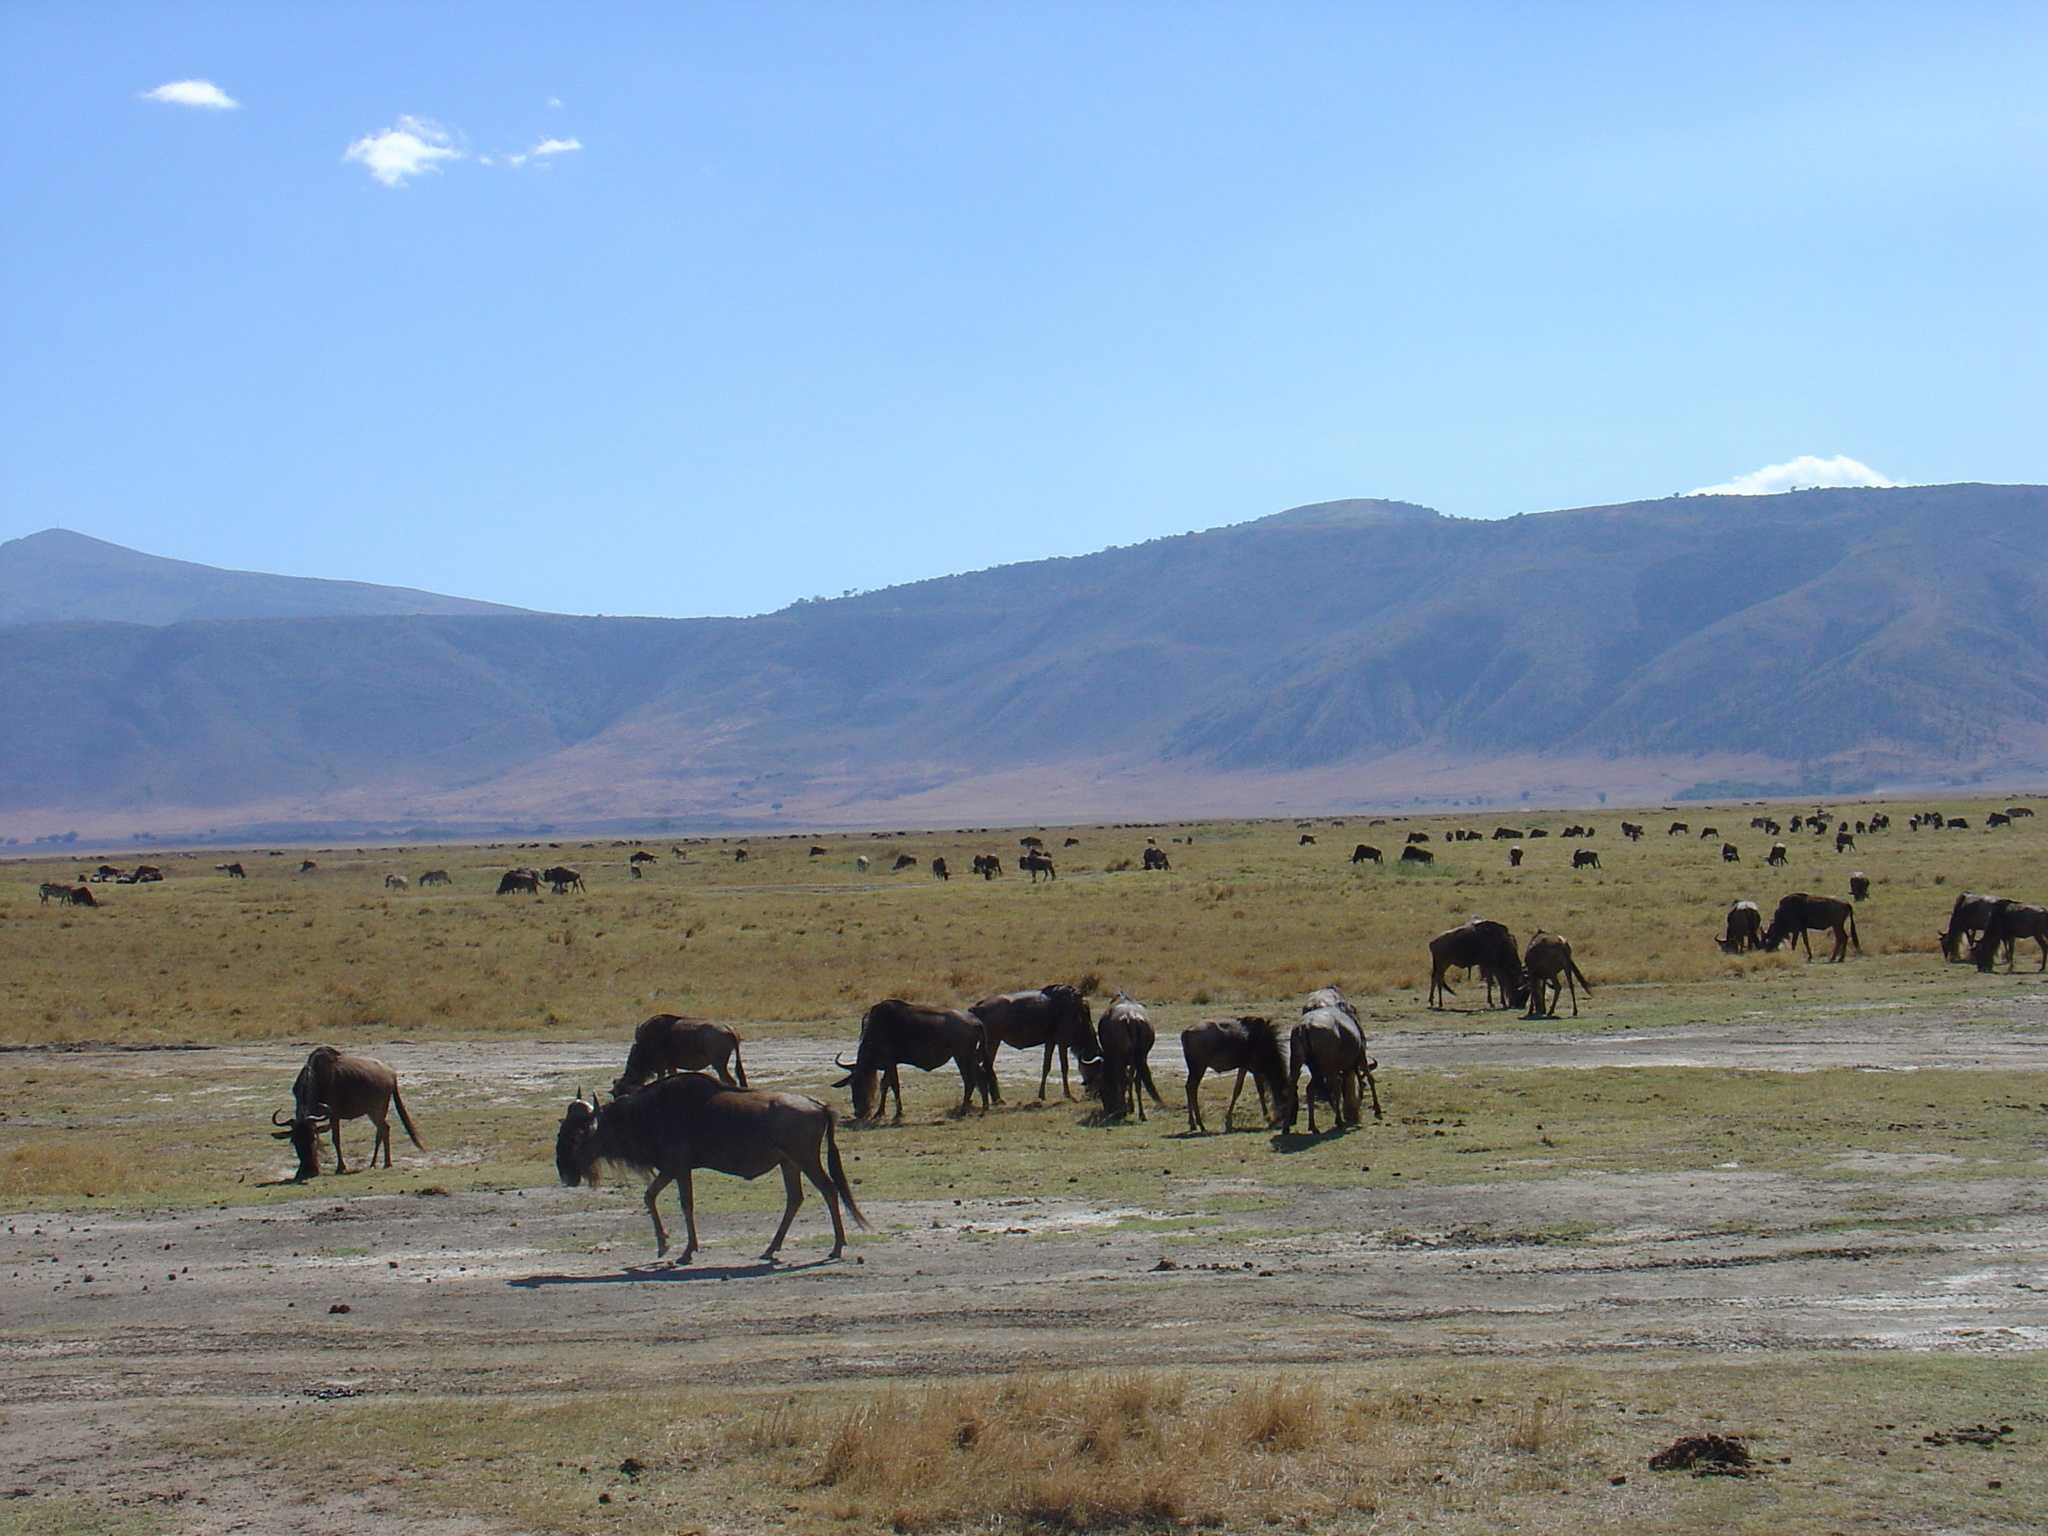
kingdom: Animalia
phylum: Chordata
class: Mammalia
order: Artiodactyla
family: Bovidae
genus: Connochaetes
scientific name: Connochaetes taurinus
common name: Blue wildebeest
